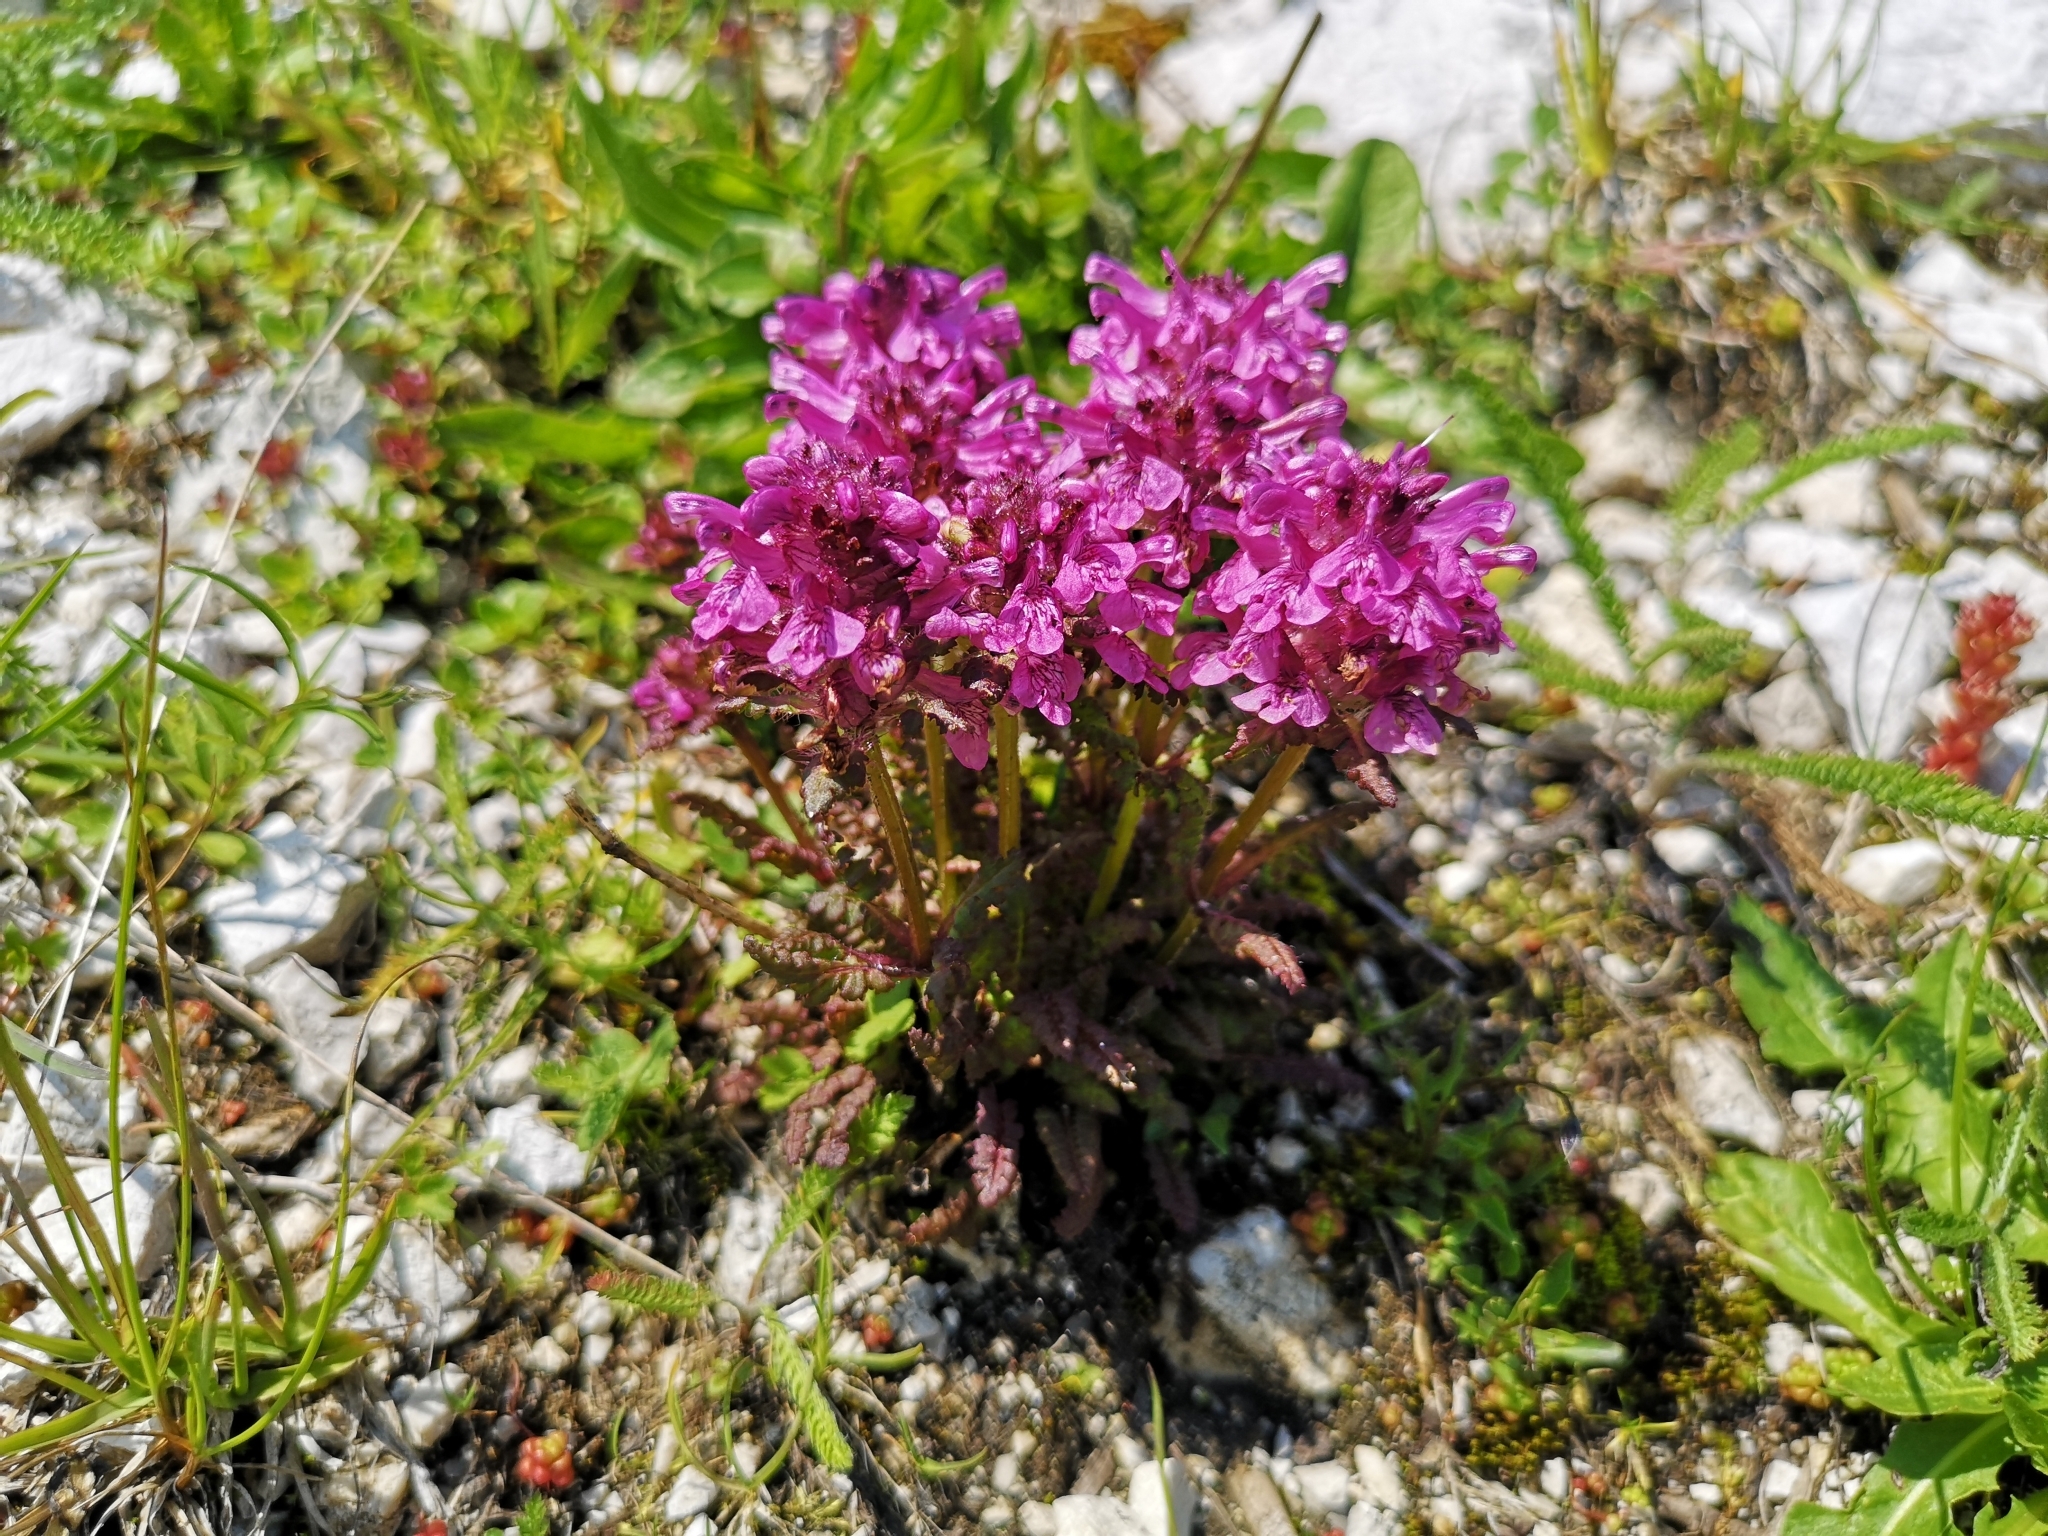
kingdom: Plantae
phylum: Tracheophyta
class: Magnoliopsida
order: Lamiales
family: Orobanchaceae
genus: Pedicularis
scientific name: Pedicularis verticillata
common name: Whorled lousewort
